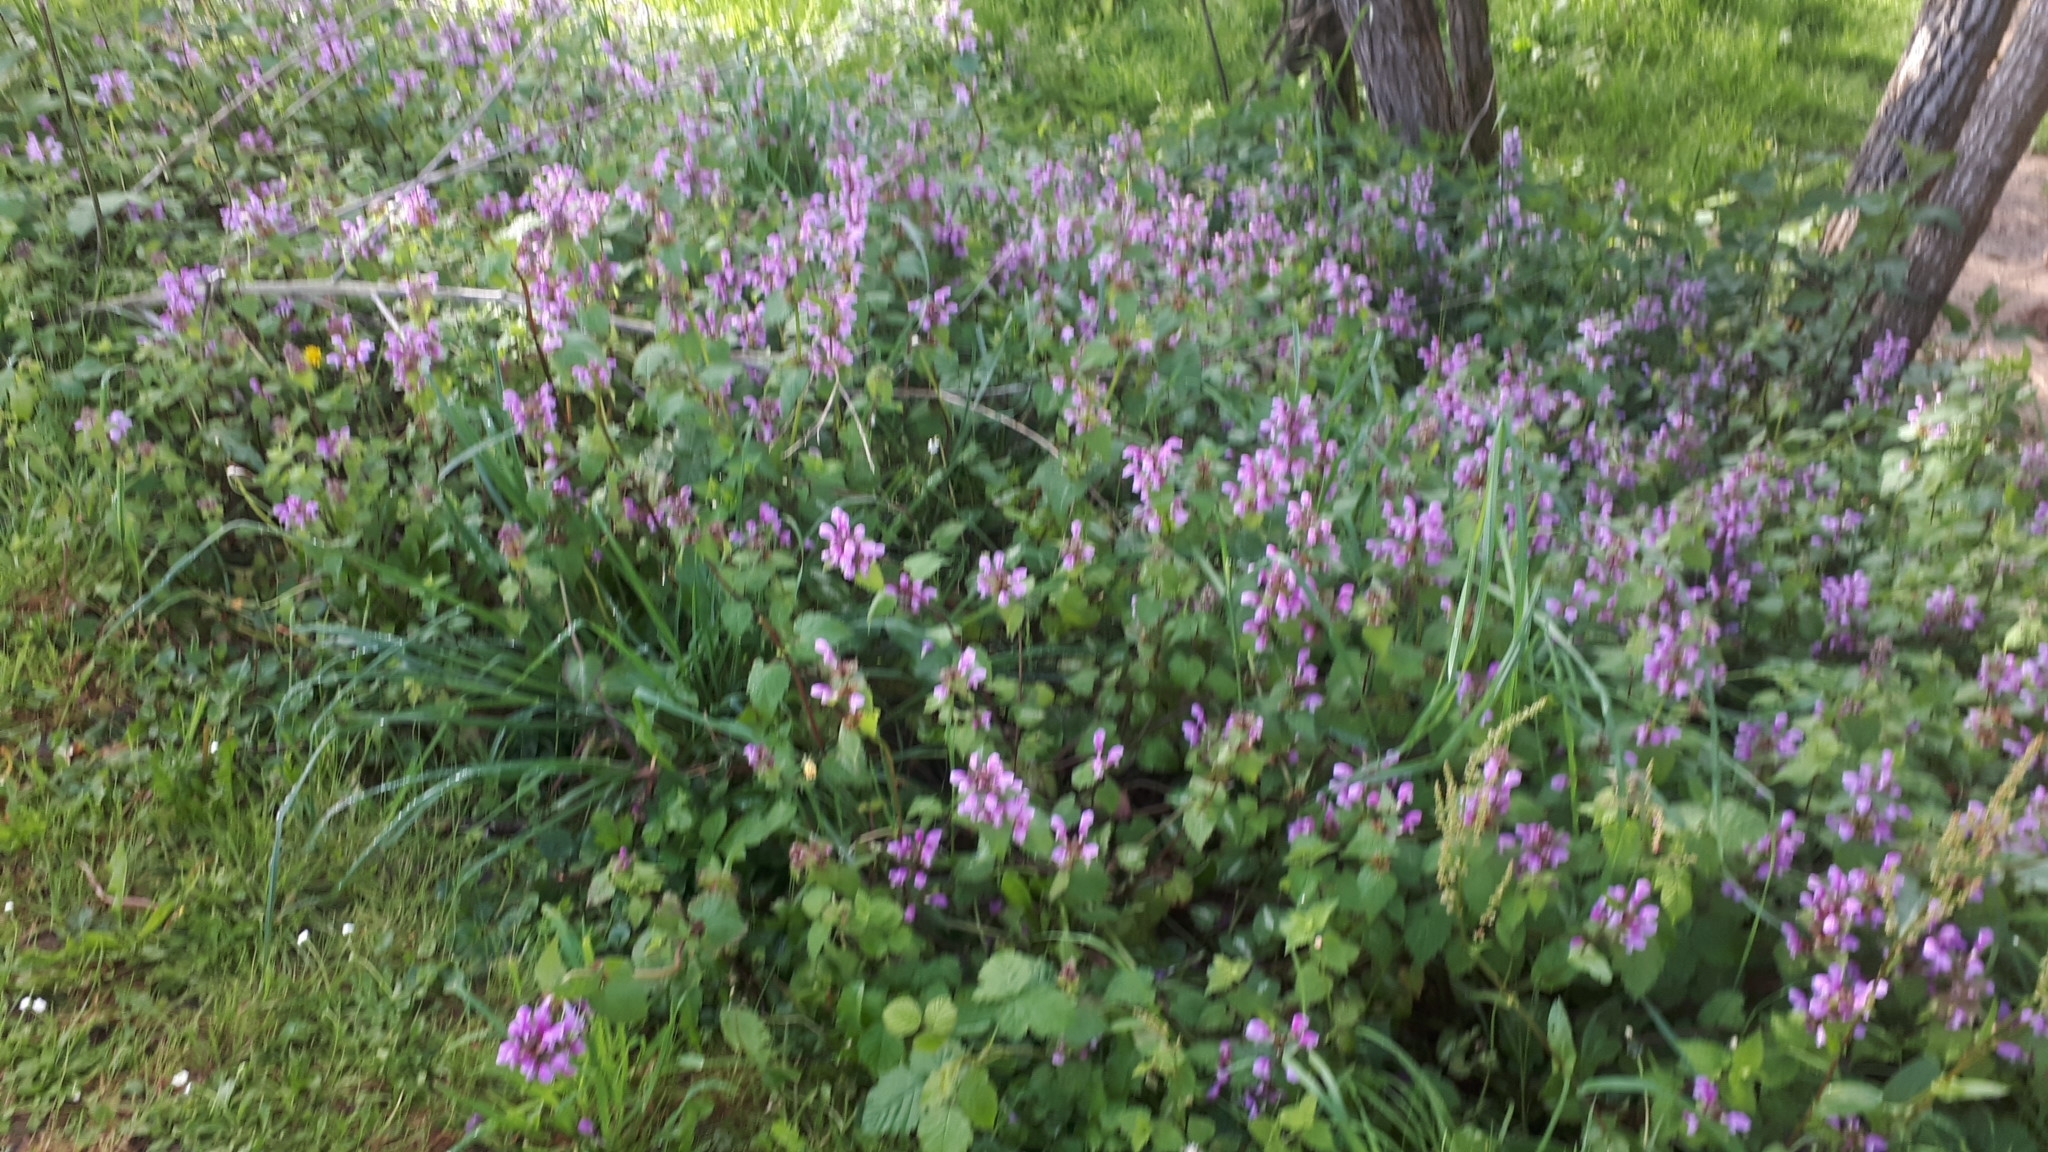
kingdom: Plantae
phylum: Tracheophyta
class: Magnoliopsida
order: Lamiales
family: Lamiaceae
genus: Lamium
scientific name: Lamium maculatum
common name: Spotted dead-nettle
